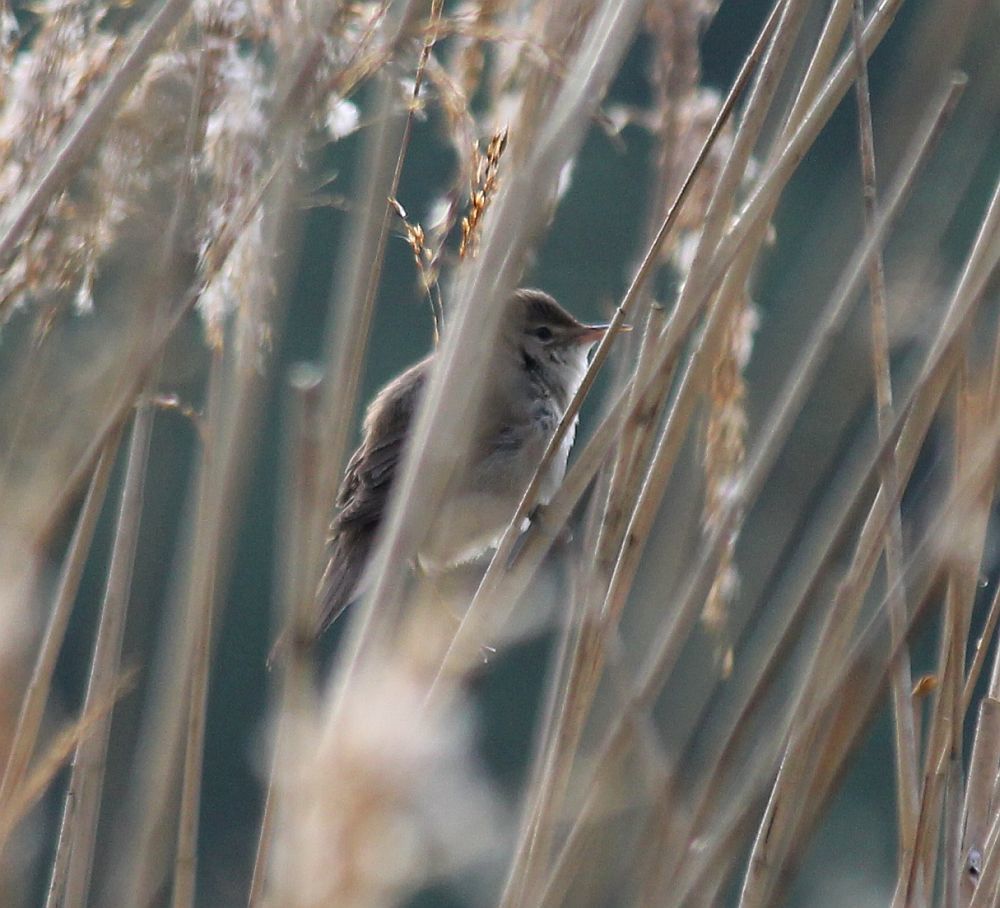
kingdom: Animalia
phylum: Chordata
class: Aves
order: Passeriformes
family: Acrocephalidae
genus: Acrocephalus
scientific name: Acrocephalus scirpaceus
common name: Eurasian reed warbler
